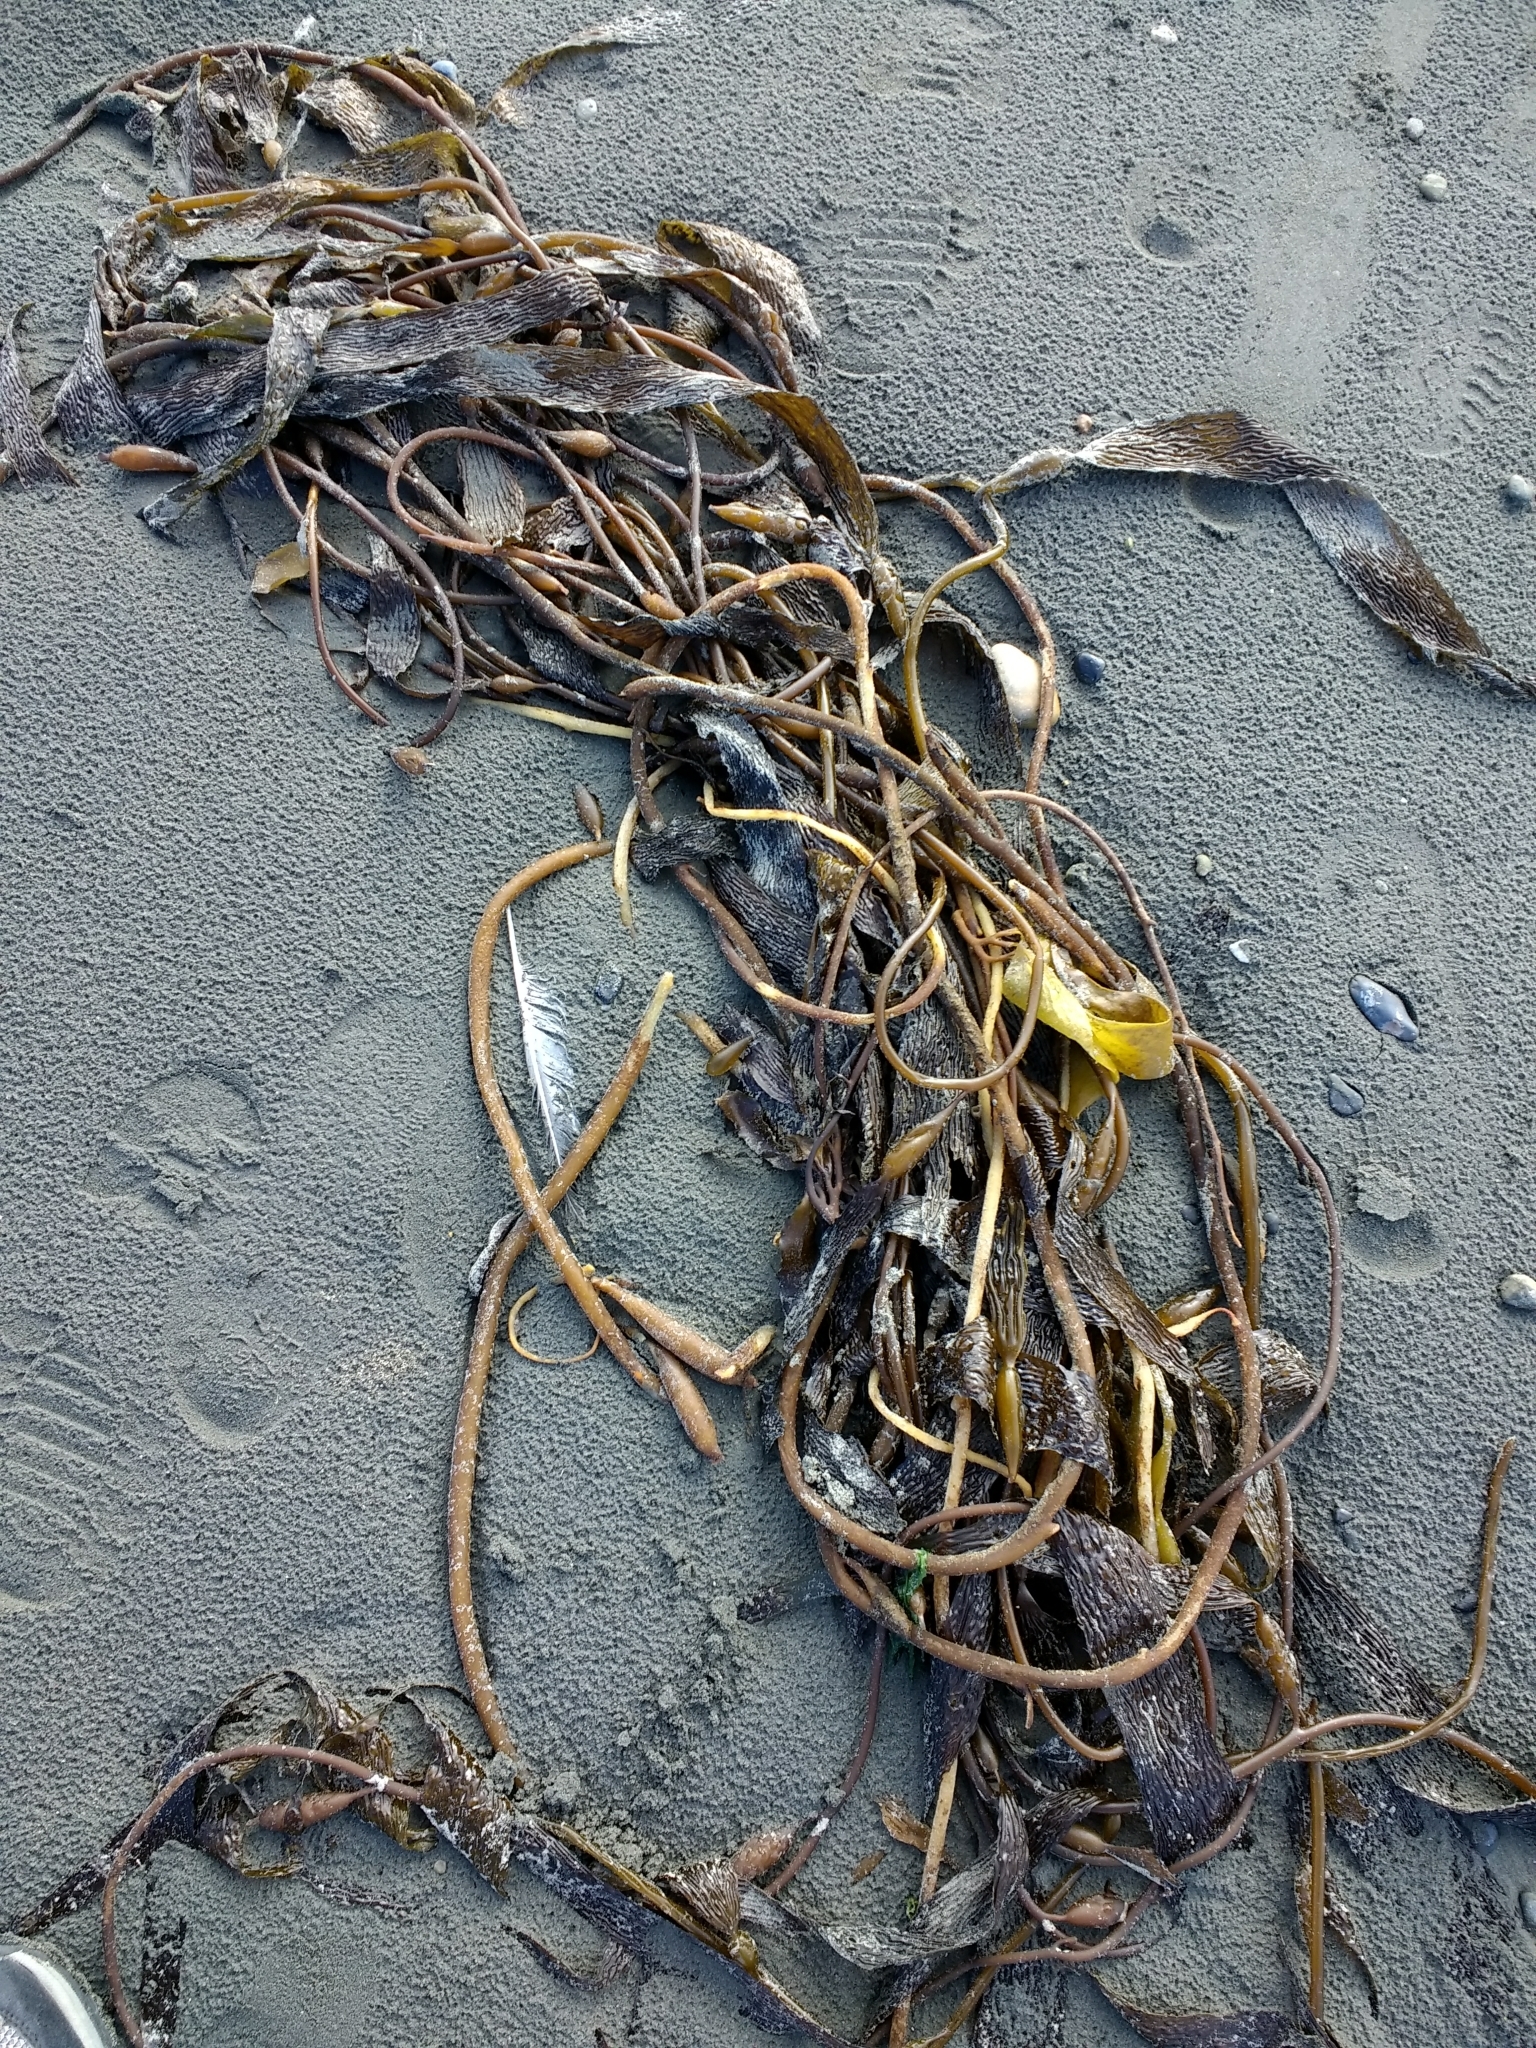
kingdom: Chromista
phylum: Ochrophyta
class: Phaeophyceae
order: Laminariales
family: Laminariaceae
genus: Macrocystis
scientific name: Macrocystis pyrifera
